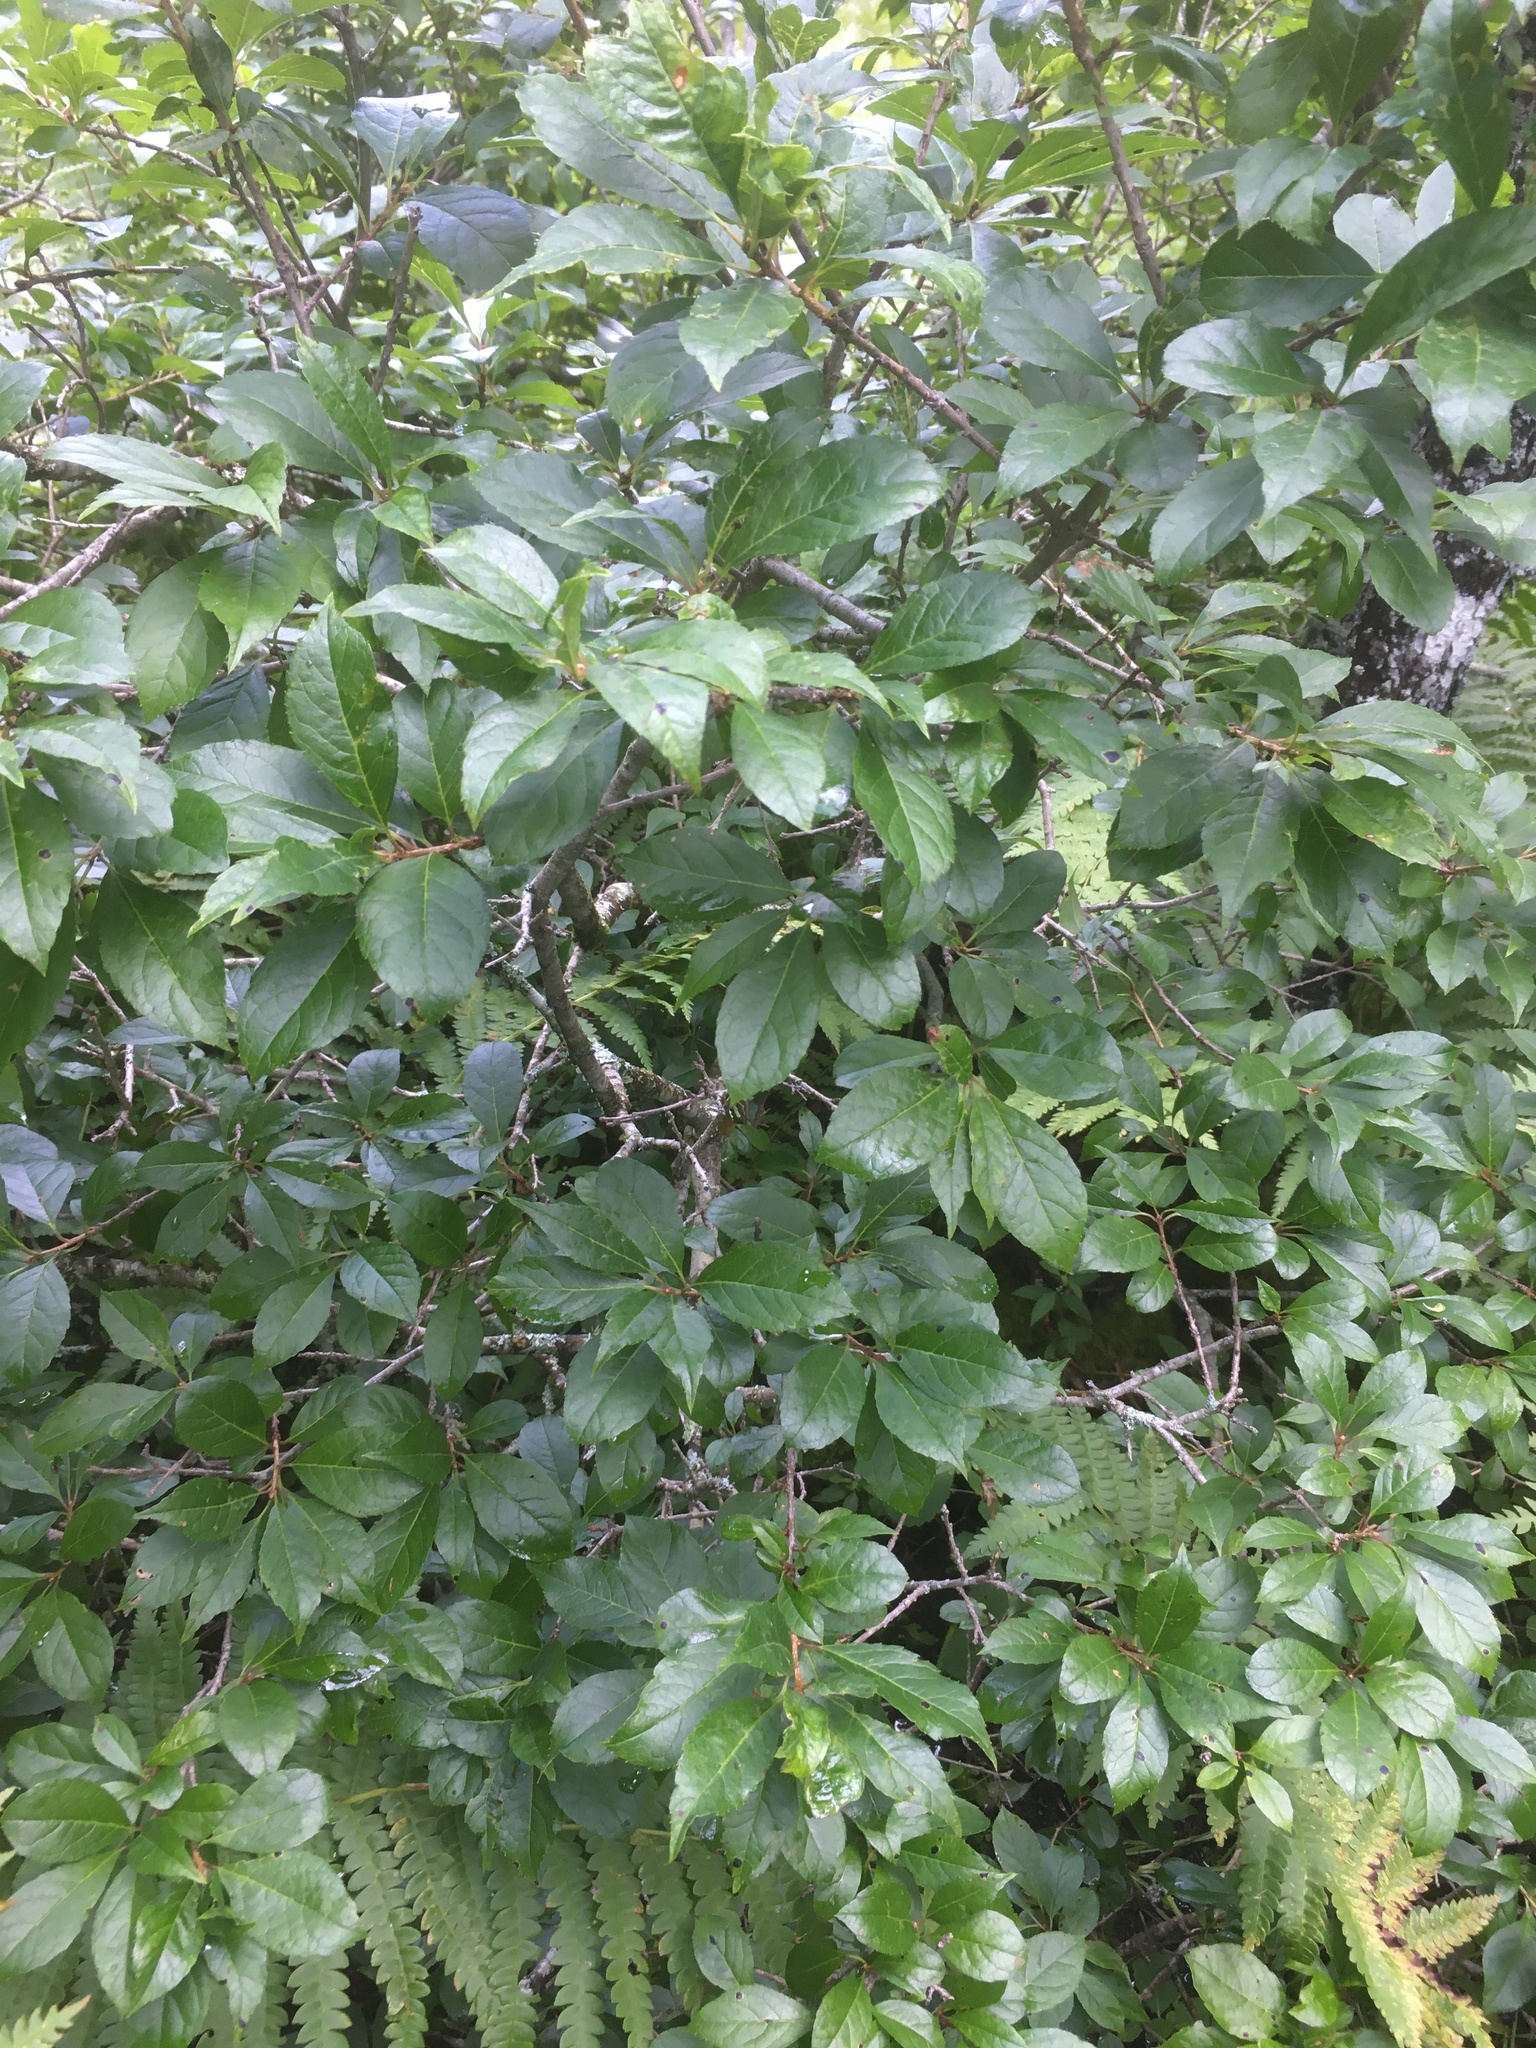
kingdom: Plantae
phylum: Tracheophyta
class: Magnoliopsida
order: Aquifoliales
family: Aquifoliaceae
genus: Ilex
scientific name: Ilex verticillata
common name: Virginia winterberry
